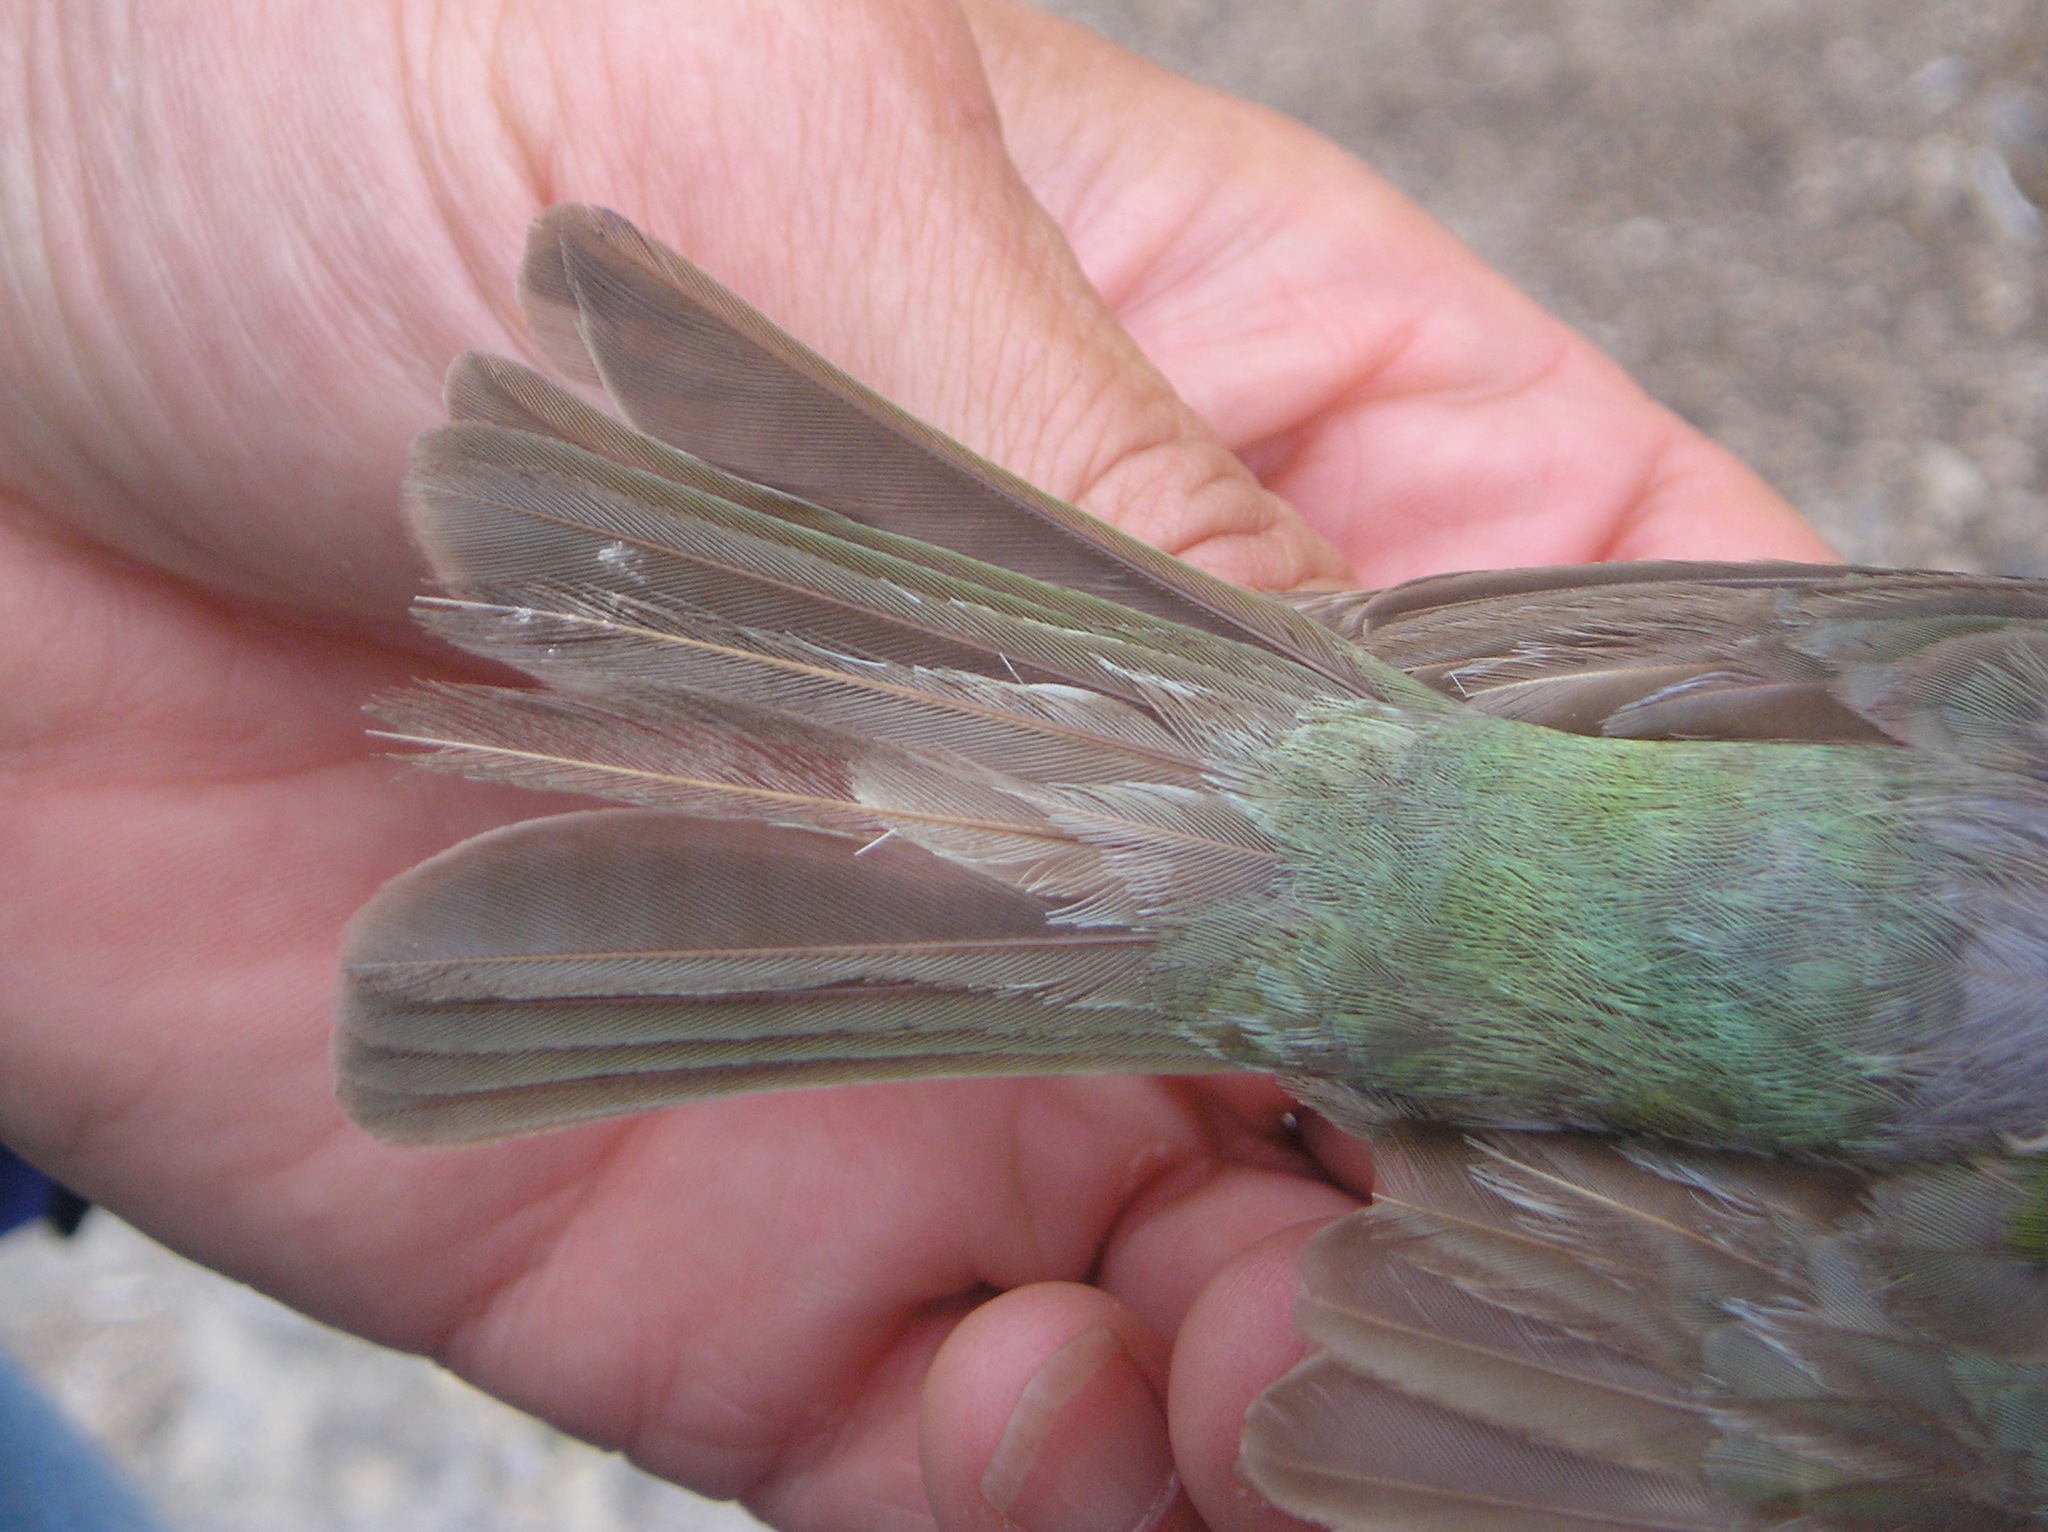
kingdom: Animalia
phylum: Chordata
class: Aves
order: Passeriformes
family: Cardinalidae
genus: Passerina
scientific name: Passerina ciris
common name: Painted bunting
